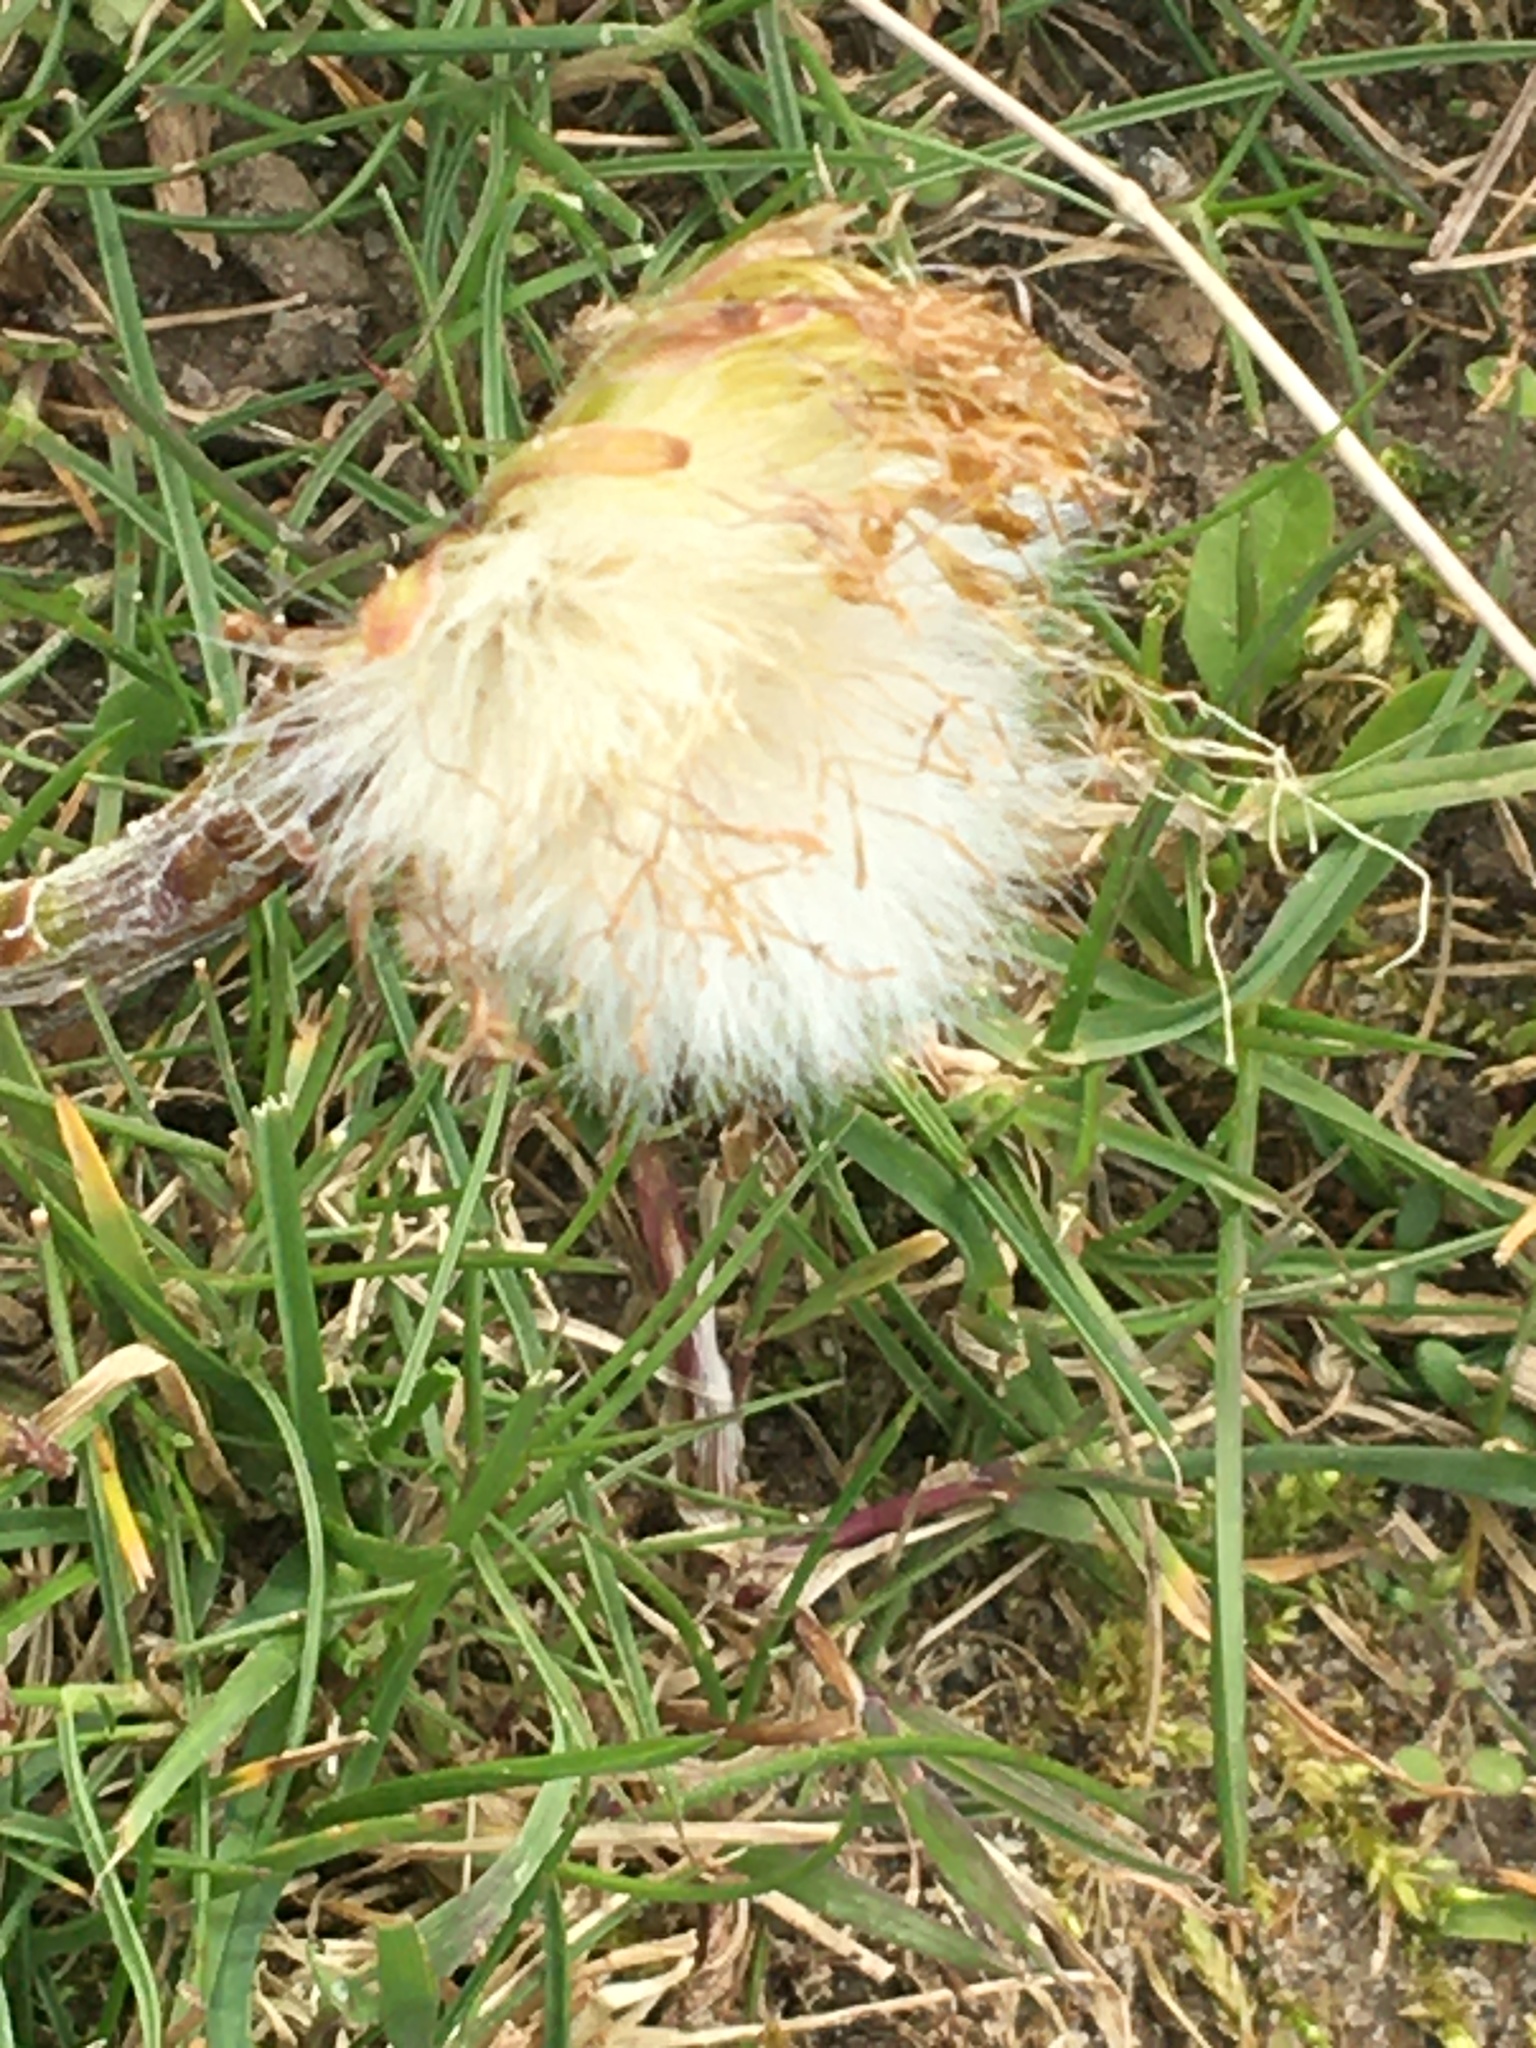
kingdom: Plantae
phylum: Tracheophyta
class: Magnoliopsida
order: Asterales
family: Asteraceae
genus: Tussilago
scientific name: Tussilago farfara
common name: Coltsfoot
